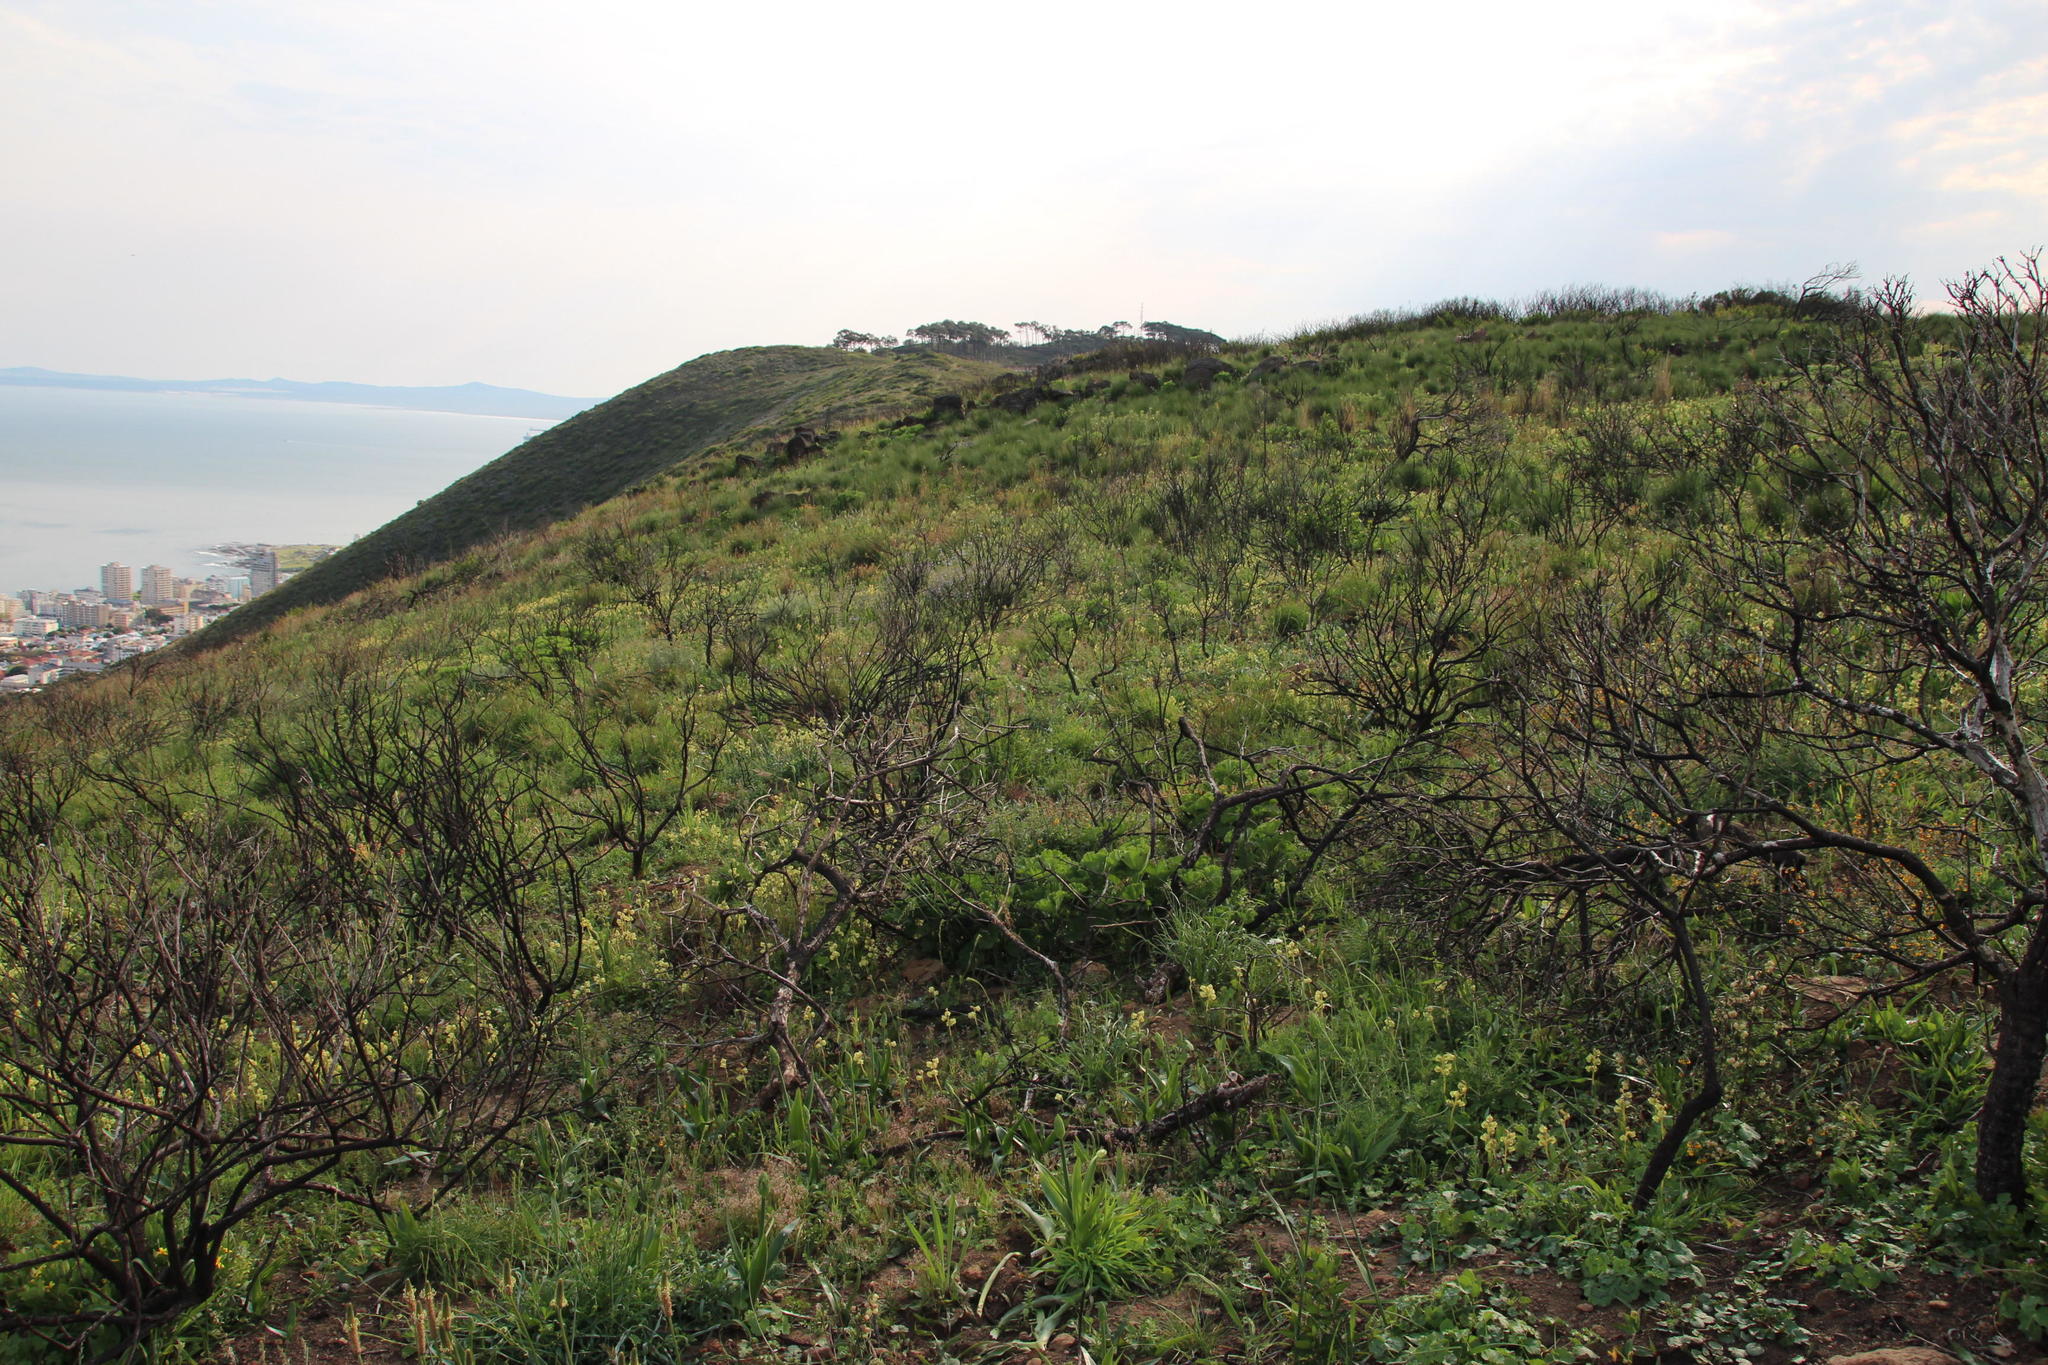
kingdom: Plantae
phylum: Tracheophyta
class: Liliopsida
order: Asparagales
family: Orchidaceae
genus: Pterygodium
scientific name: Pterygodium catholicum
